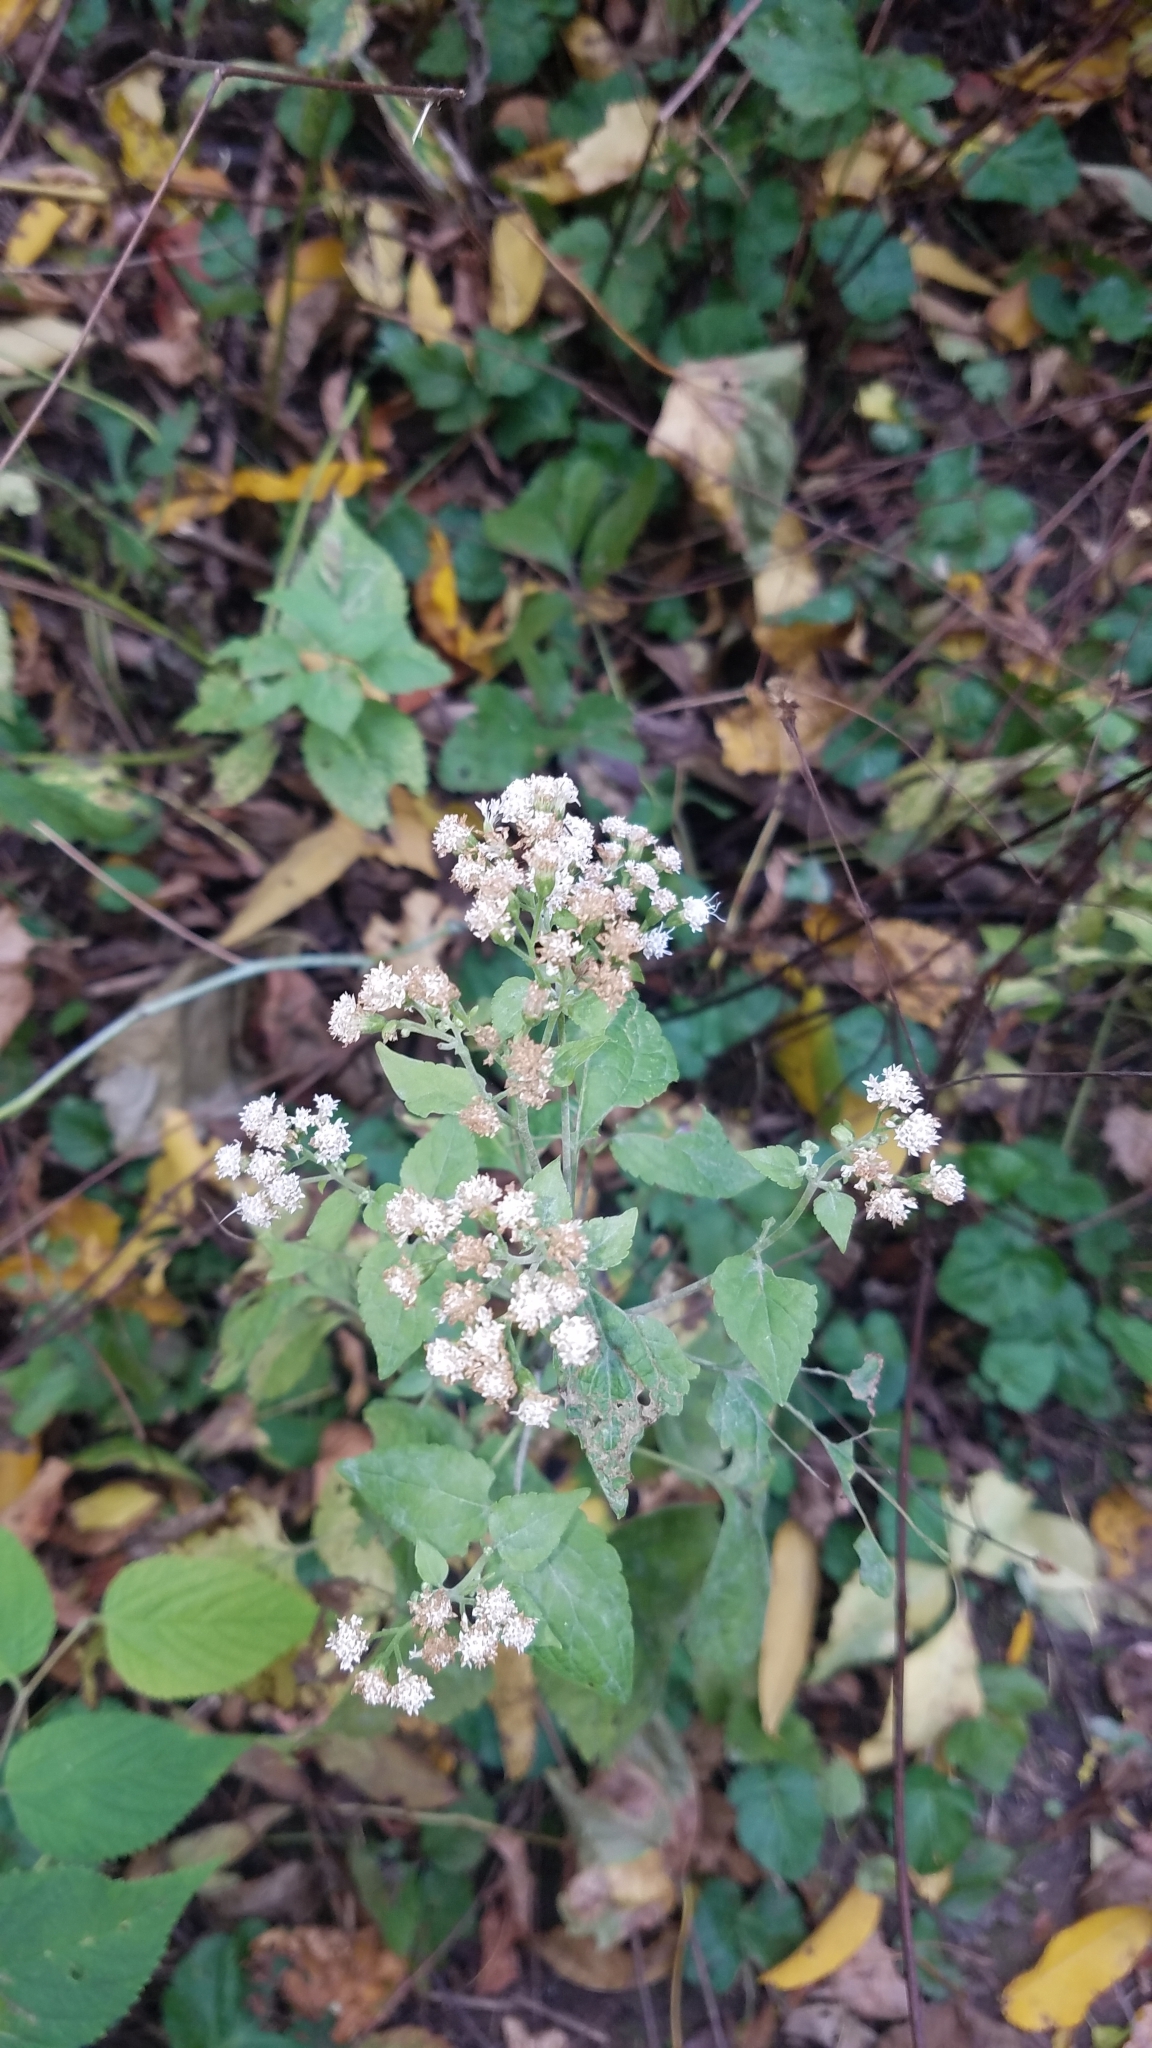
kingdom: Plantae
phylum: Tracheophyta
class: Magnoliopsida
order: Asterales
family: Asteraceae
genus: Ageratina
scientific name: Ageratina altissima
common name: White snakeroot
